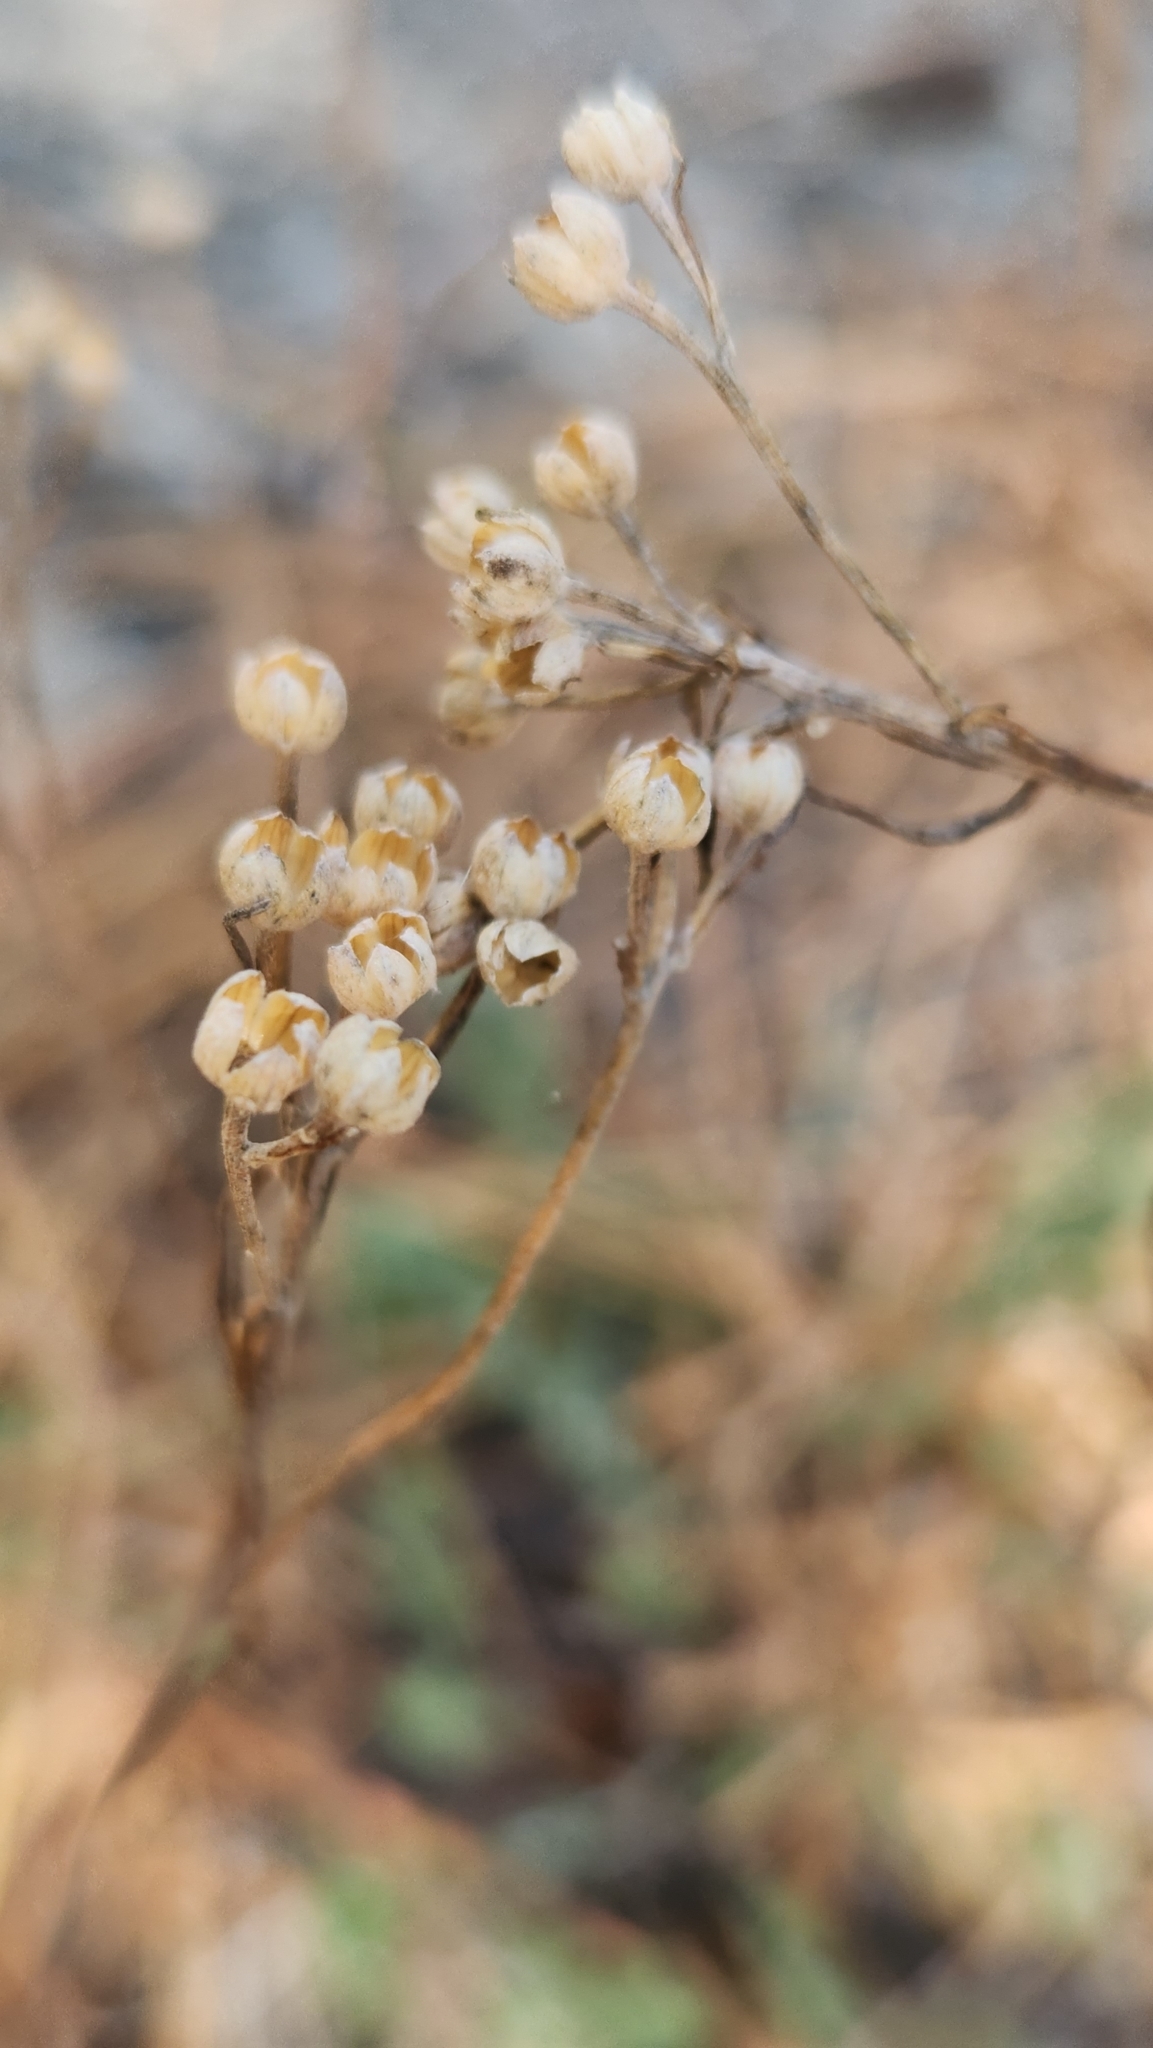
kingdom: Plantae
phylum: Tracheophyta
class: Magnoliopsida
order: Asterales
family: Asteraceae
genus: Eriophyllum
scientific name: Eriophyllum confertiflorum
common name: Golden-yarrow
